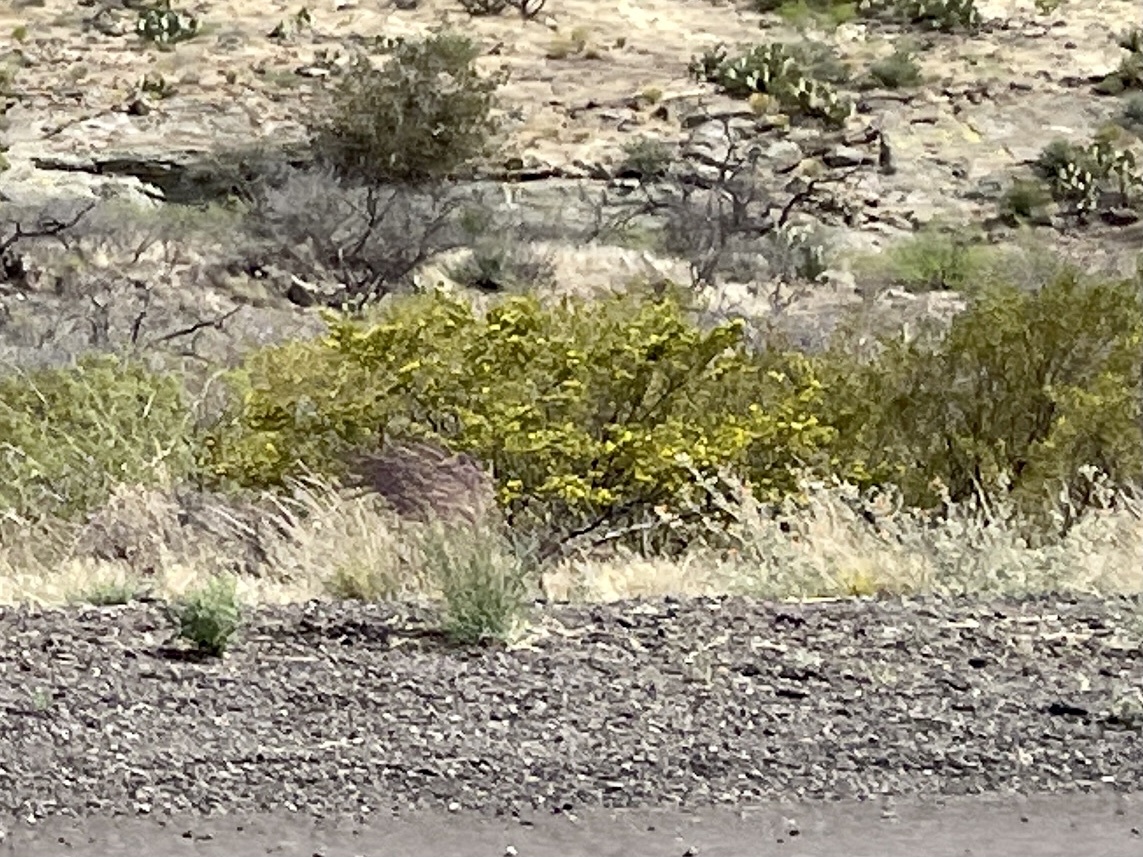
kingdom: Plantae
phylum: Tracheophyta
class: Magnoliopsida
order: Zygophyllales
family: Zygophyllaceae
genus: Larrea
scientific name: Larrea tridentata
